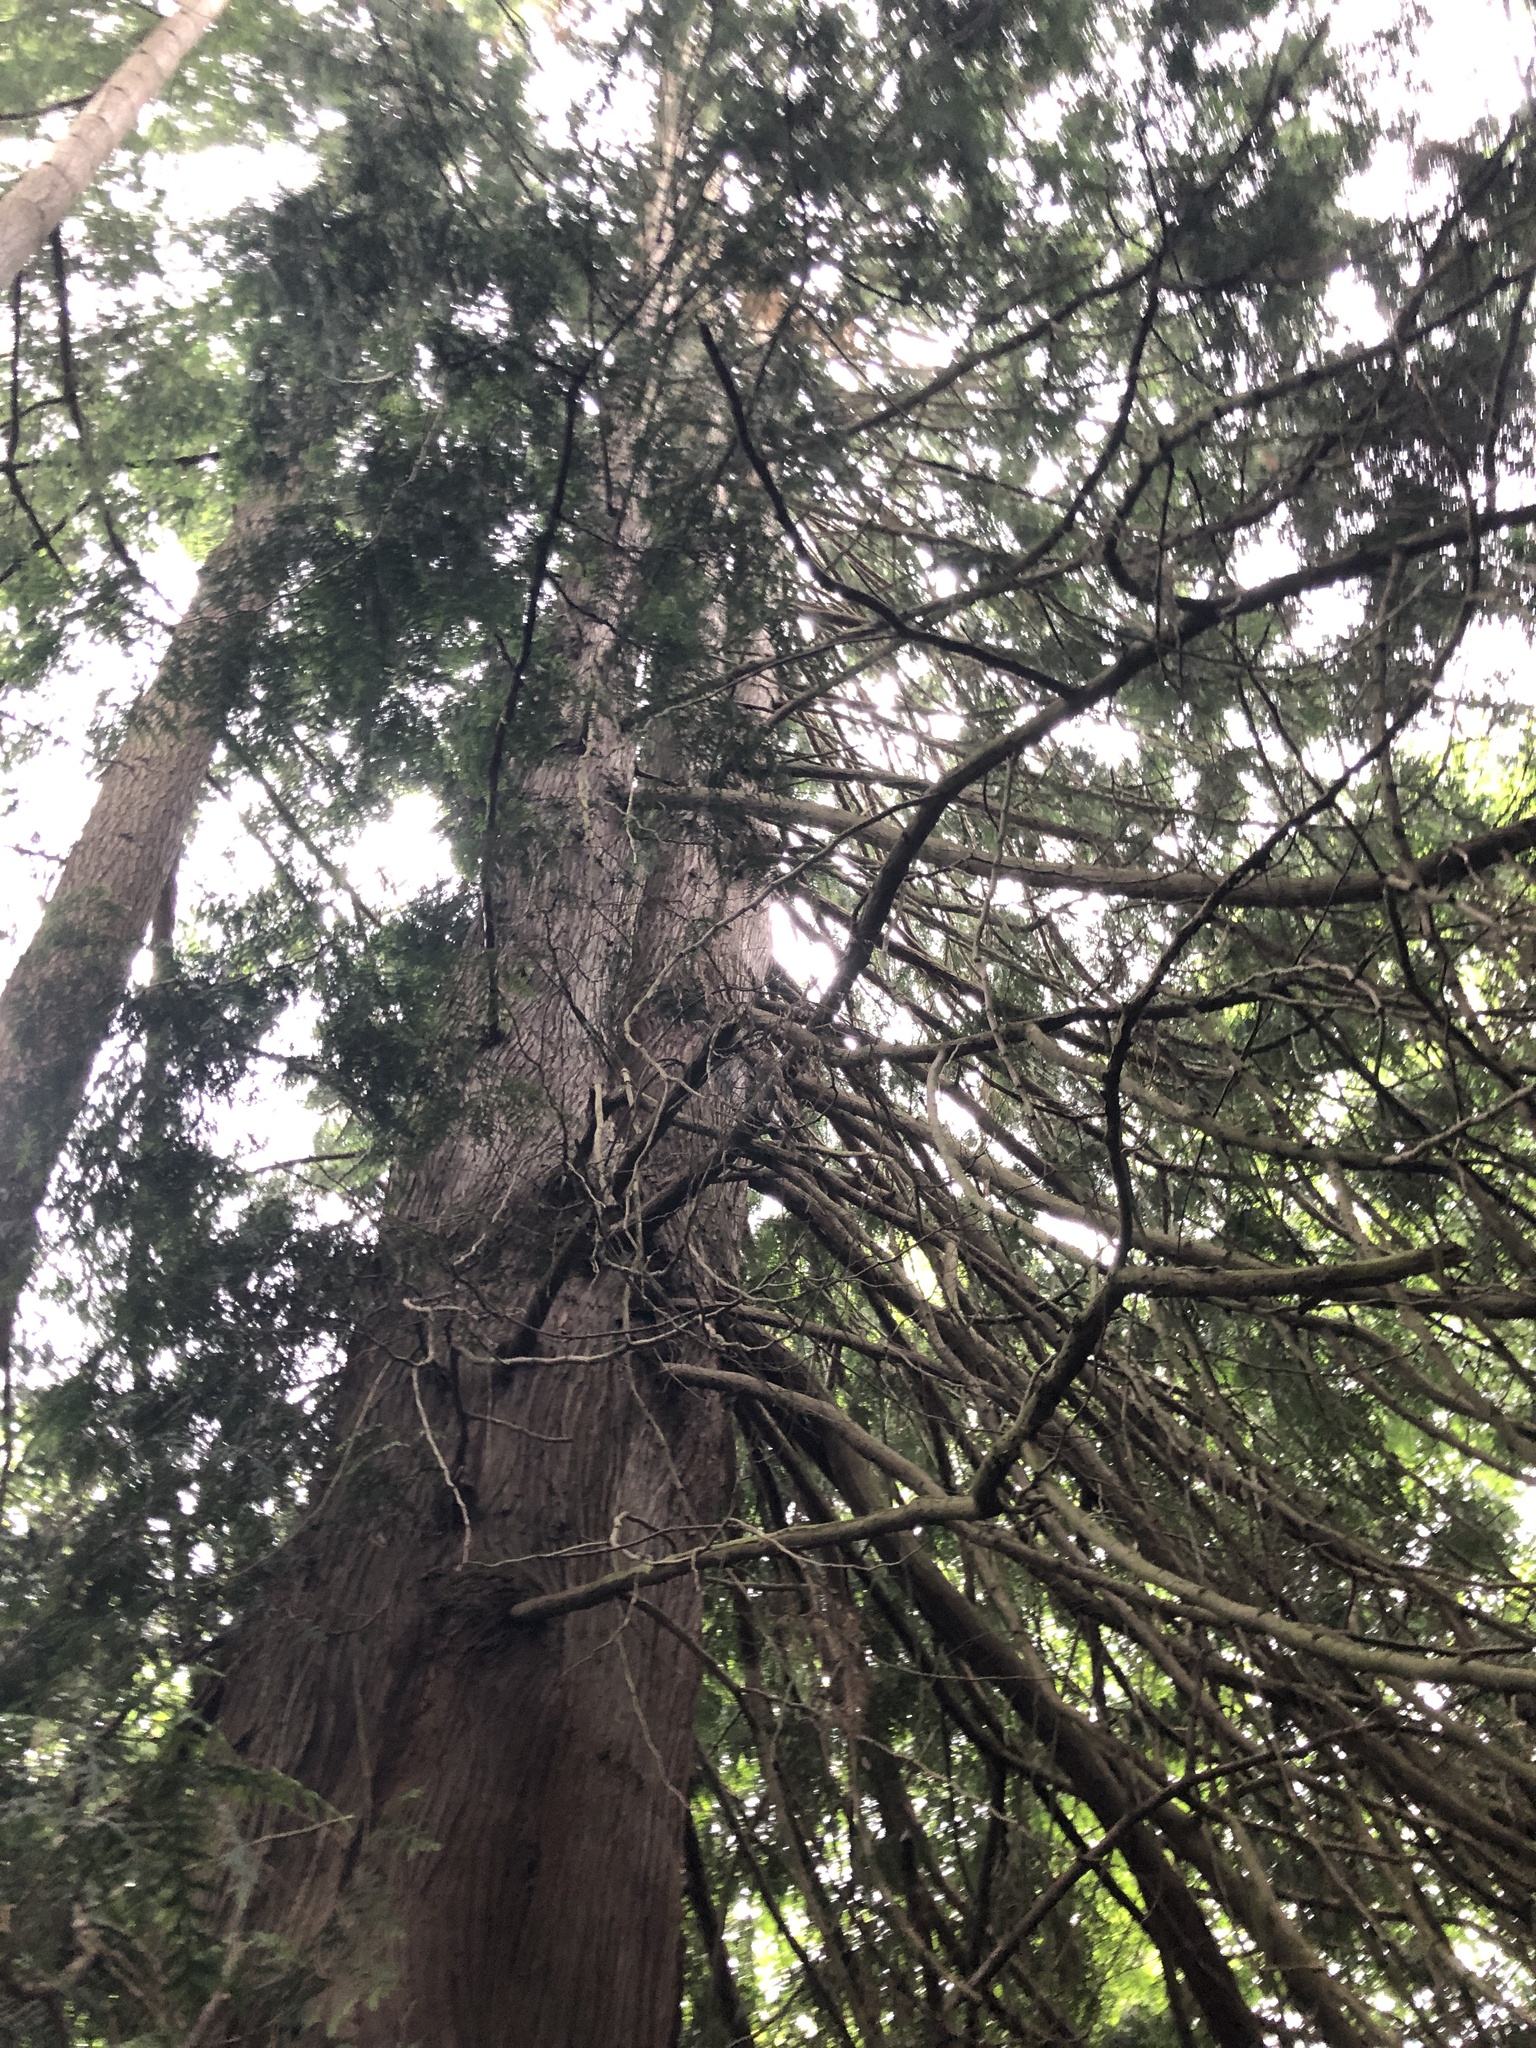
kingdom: Plantae
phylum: Tracheophyta
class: Pinopsida
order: Pinales
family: Cupressaceae
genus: Thuja
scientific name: Thuja plicata
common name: Western red-cedar
